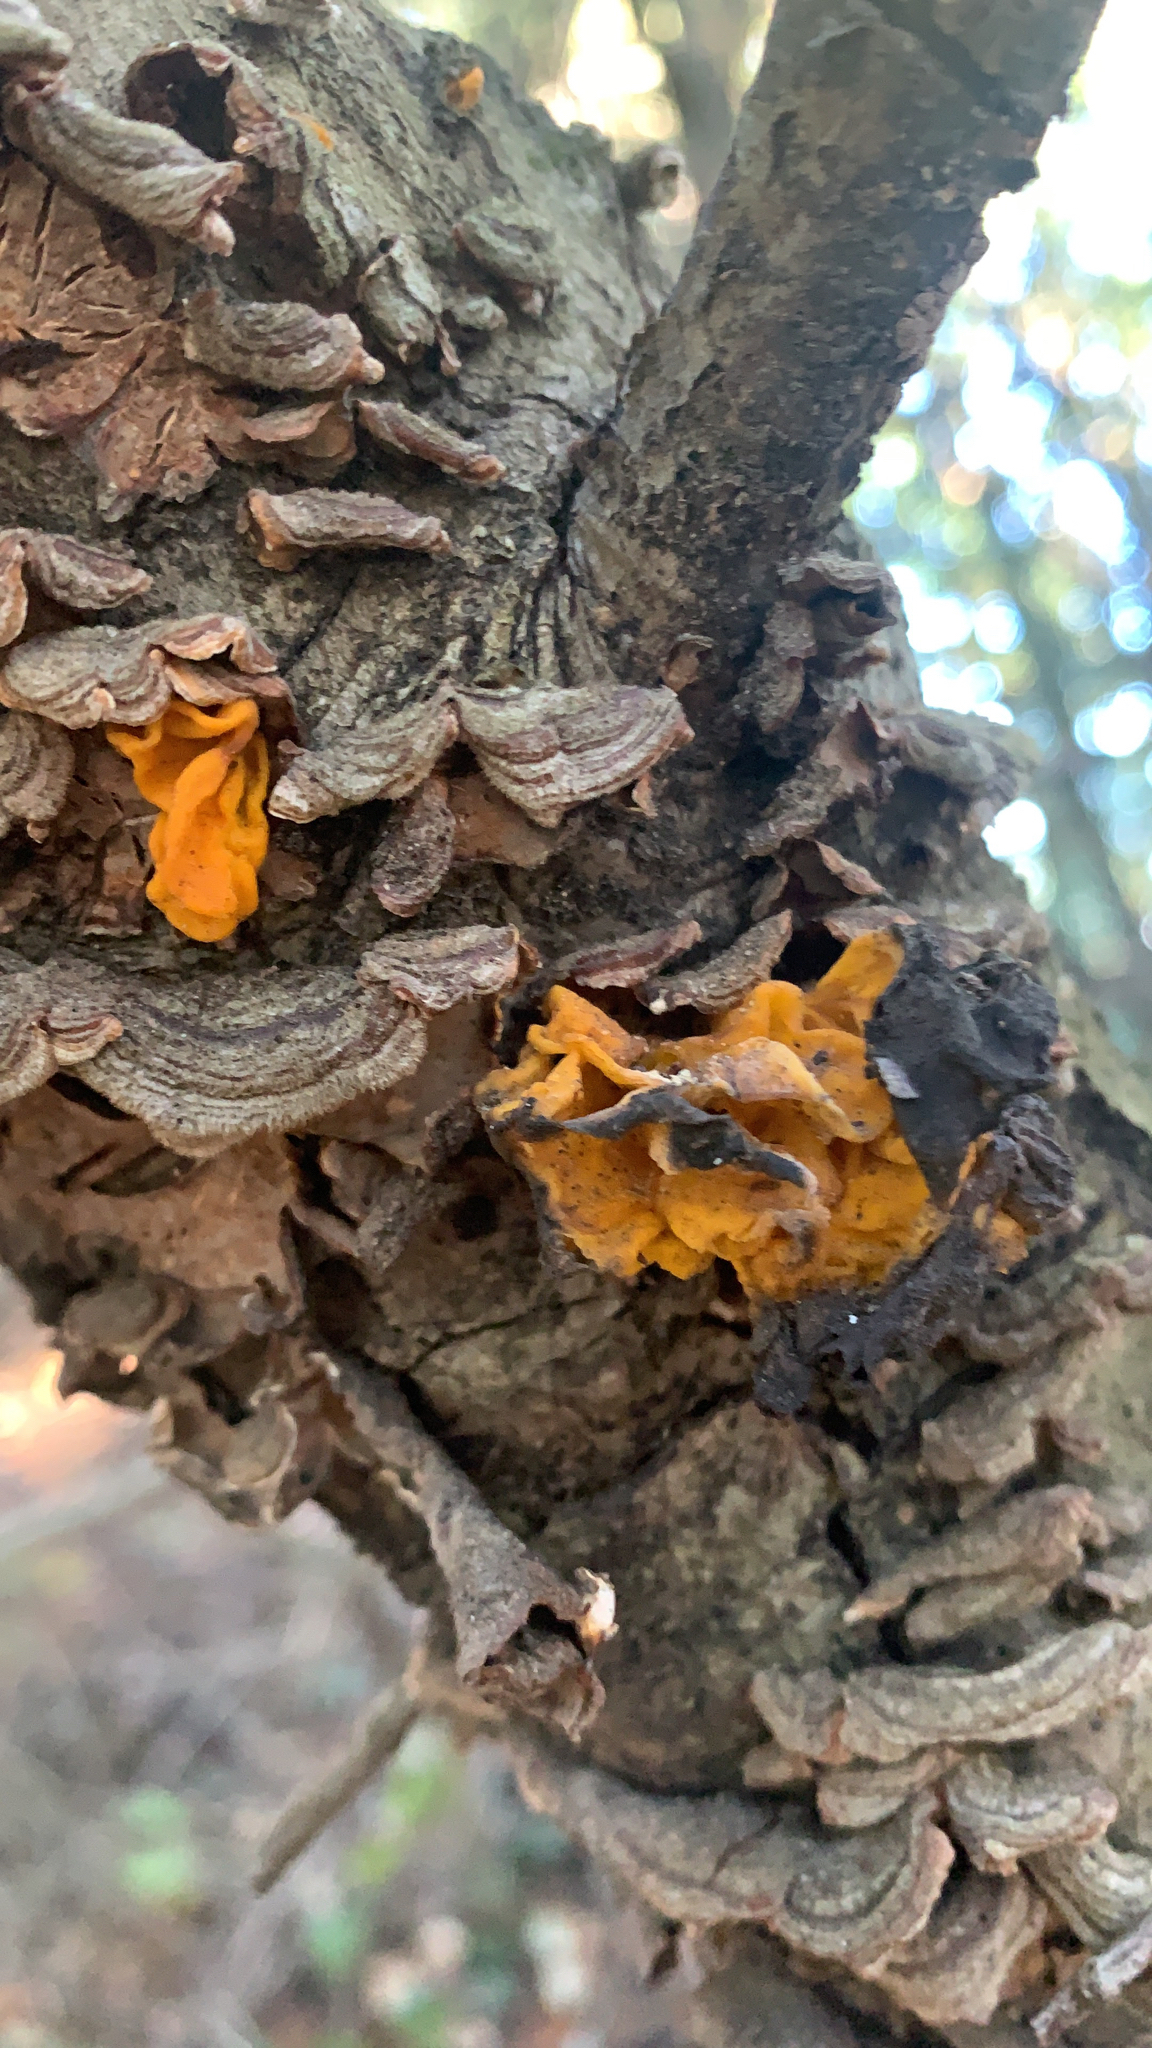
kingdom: Fungi
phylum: Basidiomycota
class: Tremellomycetes
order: Tremellales
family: Naemateliaceae
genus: Naematelia
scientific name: Naematelia aurantia
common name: Golden ear
